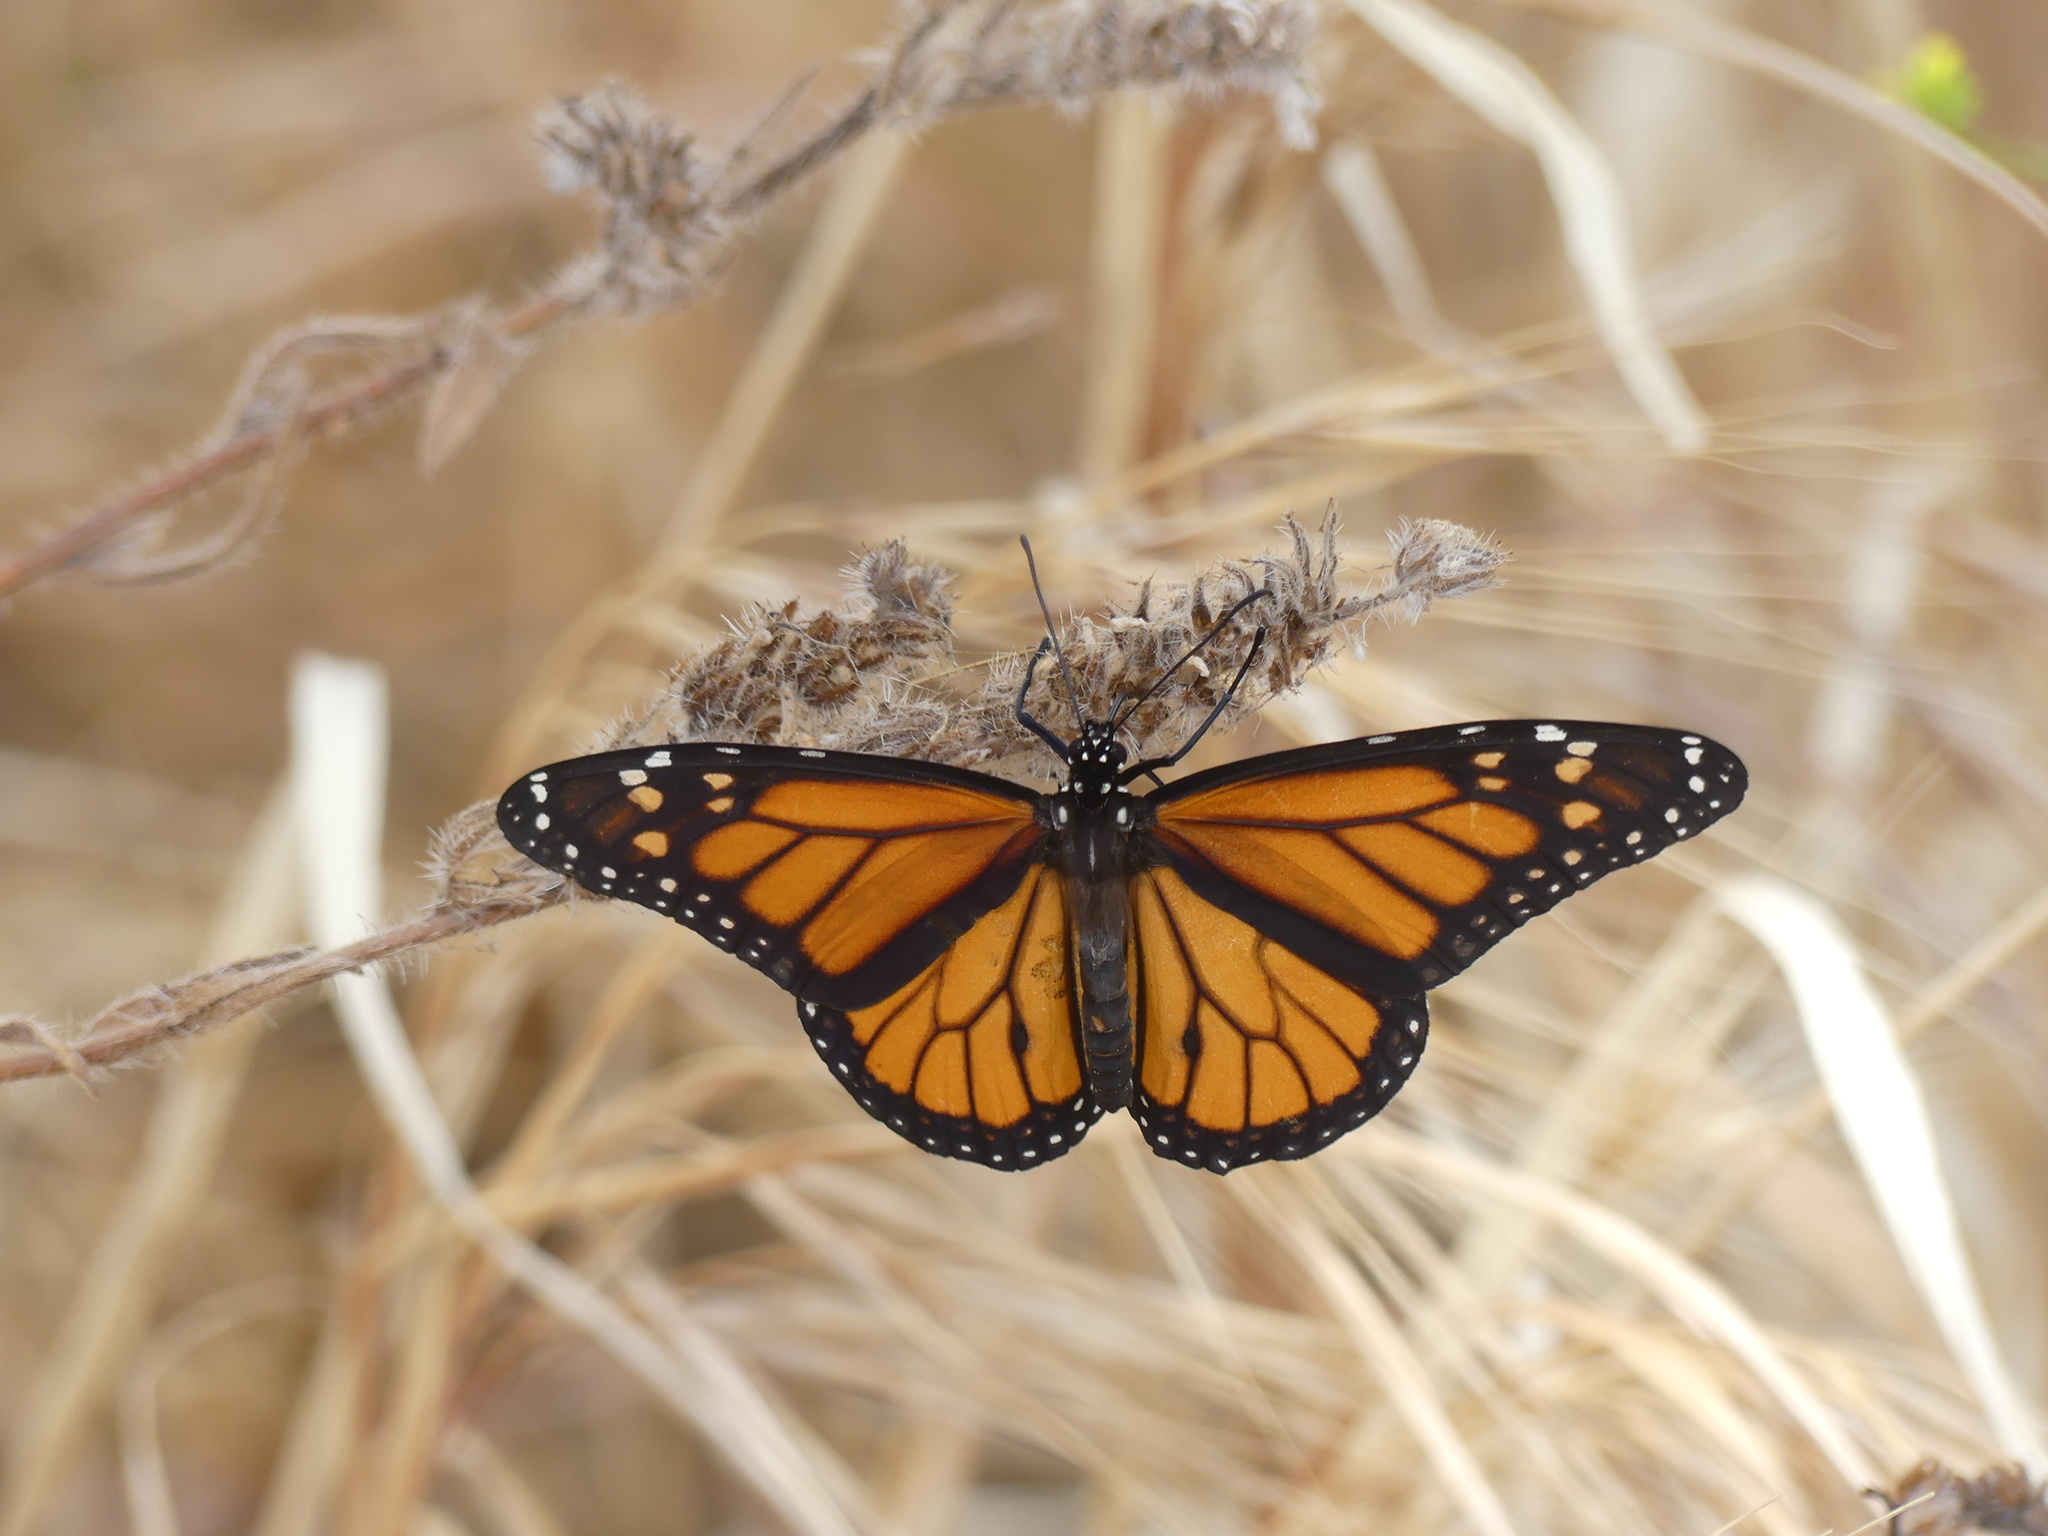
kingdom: Animalia
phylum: Arthropoda
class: Insecta
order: Lepidoptera
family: Nymphalidae
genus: Danaus
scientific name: Danaus plexippus
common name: Monarch
